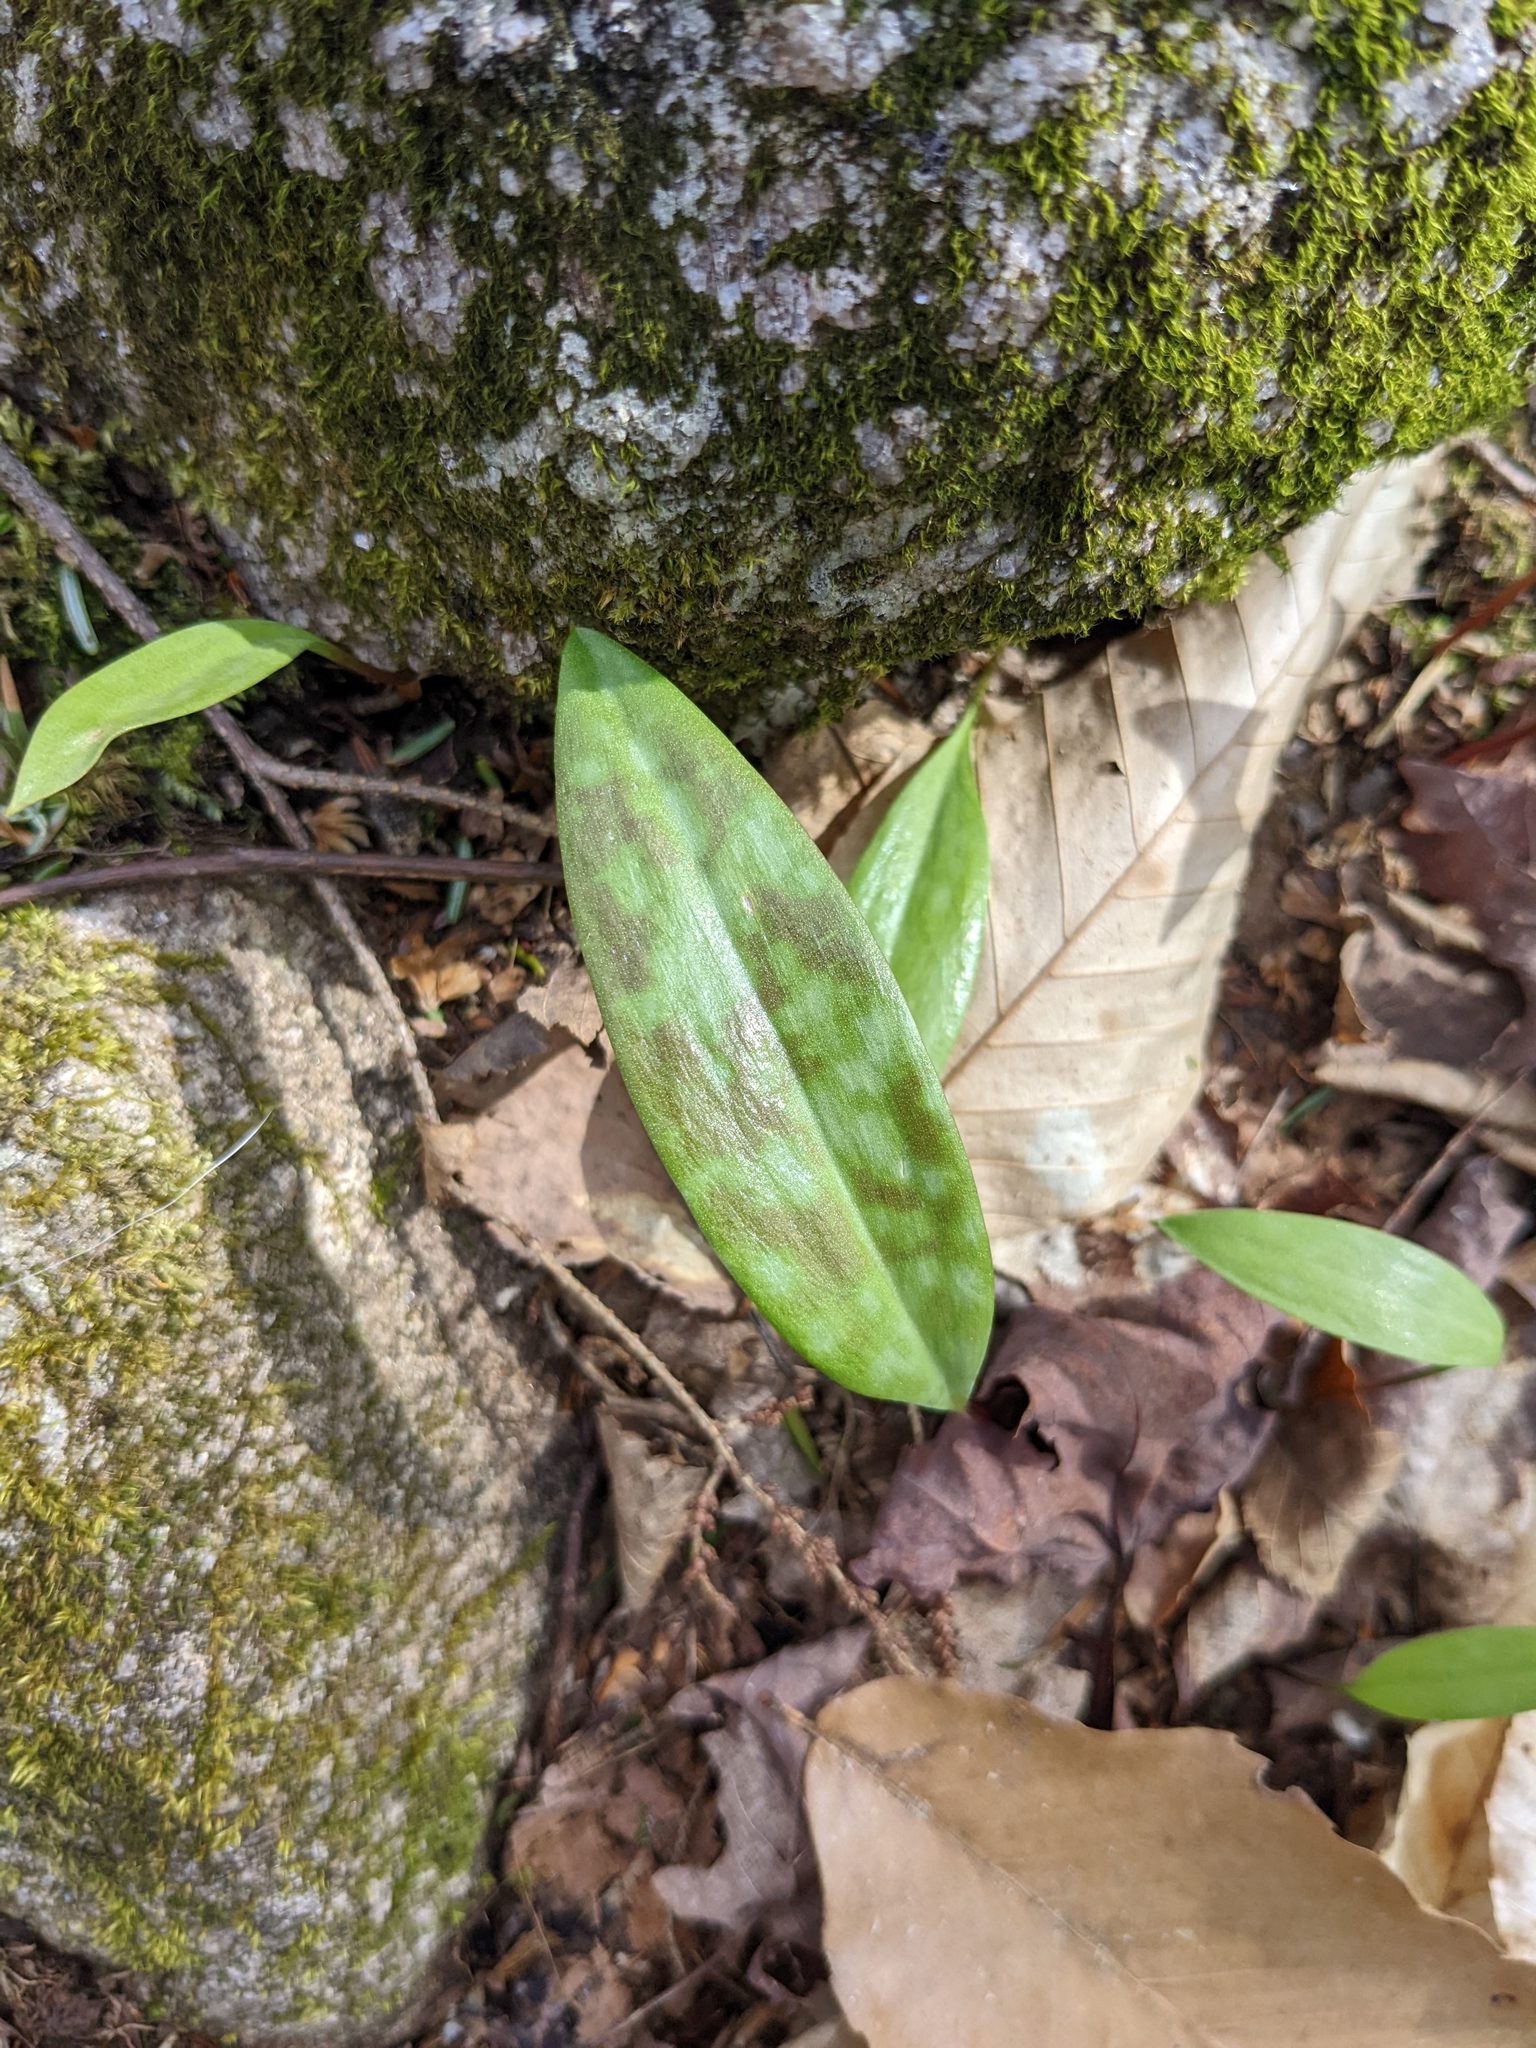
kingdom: Plantae
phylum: Tracheophyta
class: Liliopsida
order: Liliales
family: Liliaceae
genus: Erythronium
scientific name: Erythronium americanum
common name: Yellow adder's-tongue
